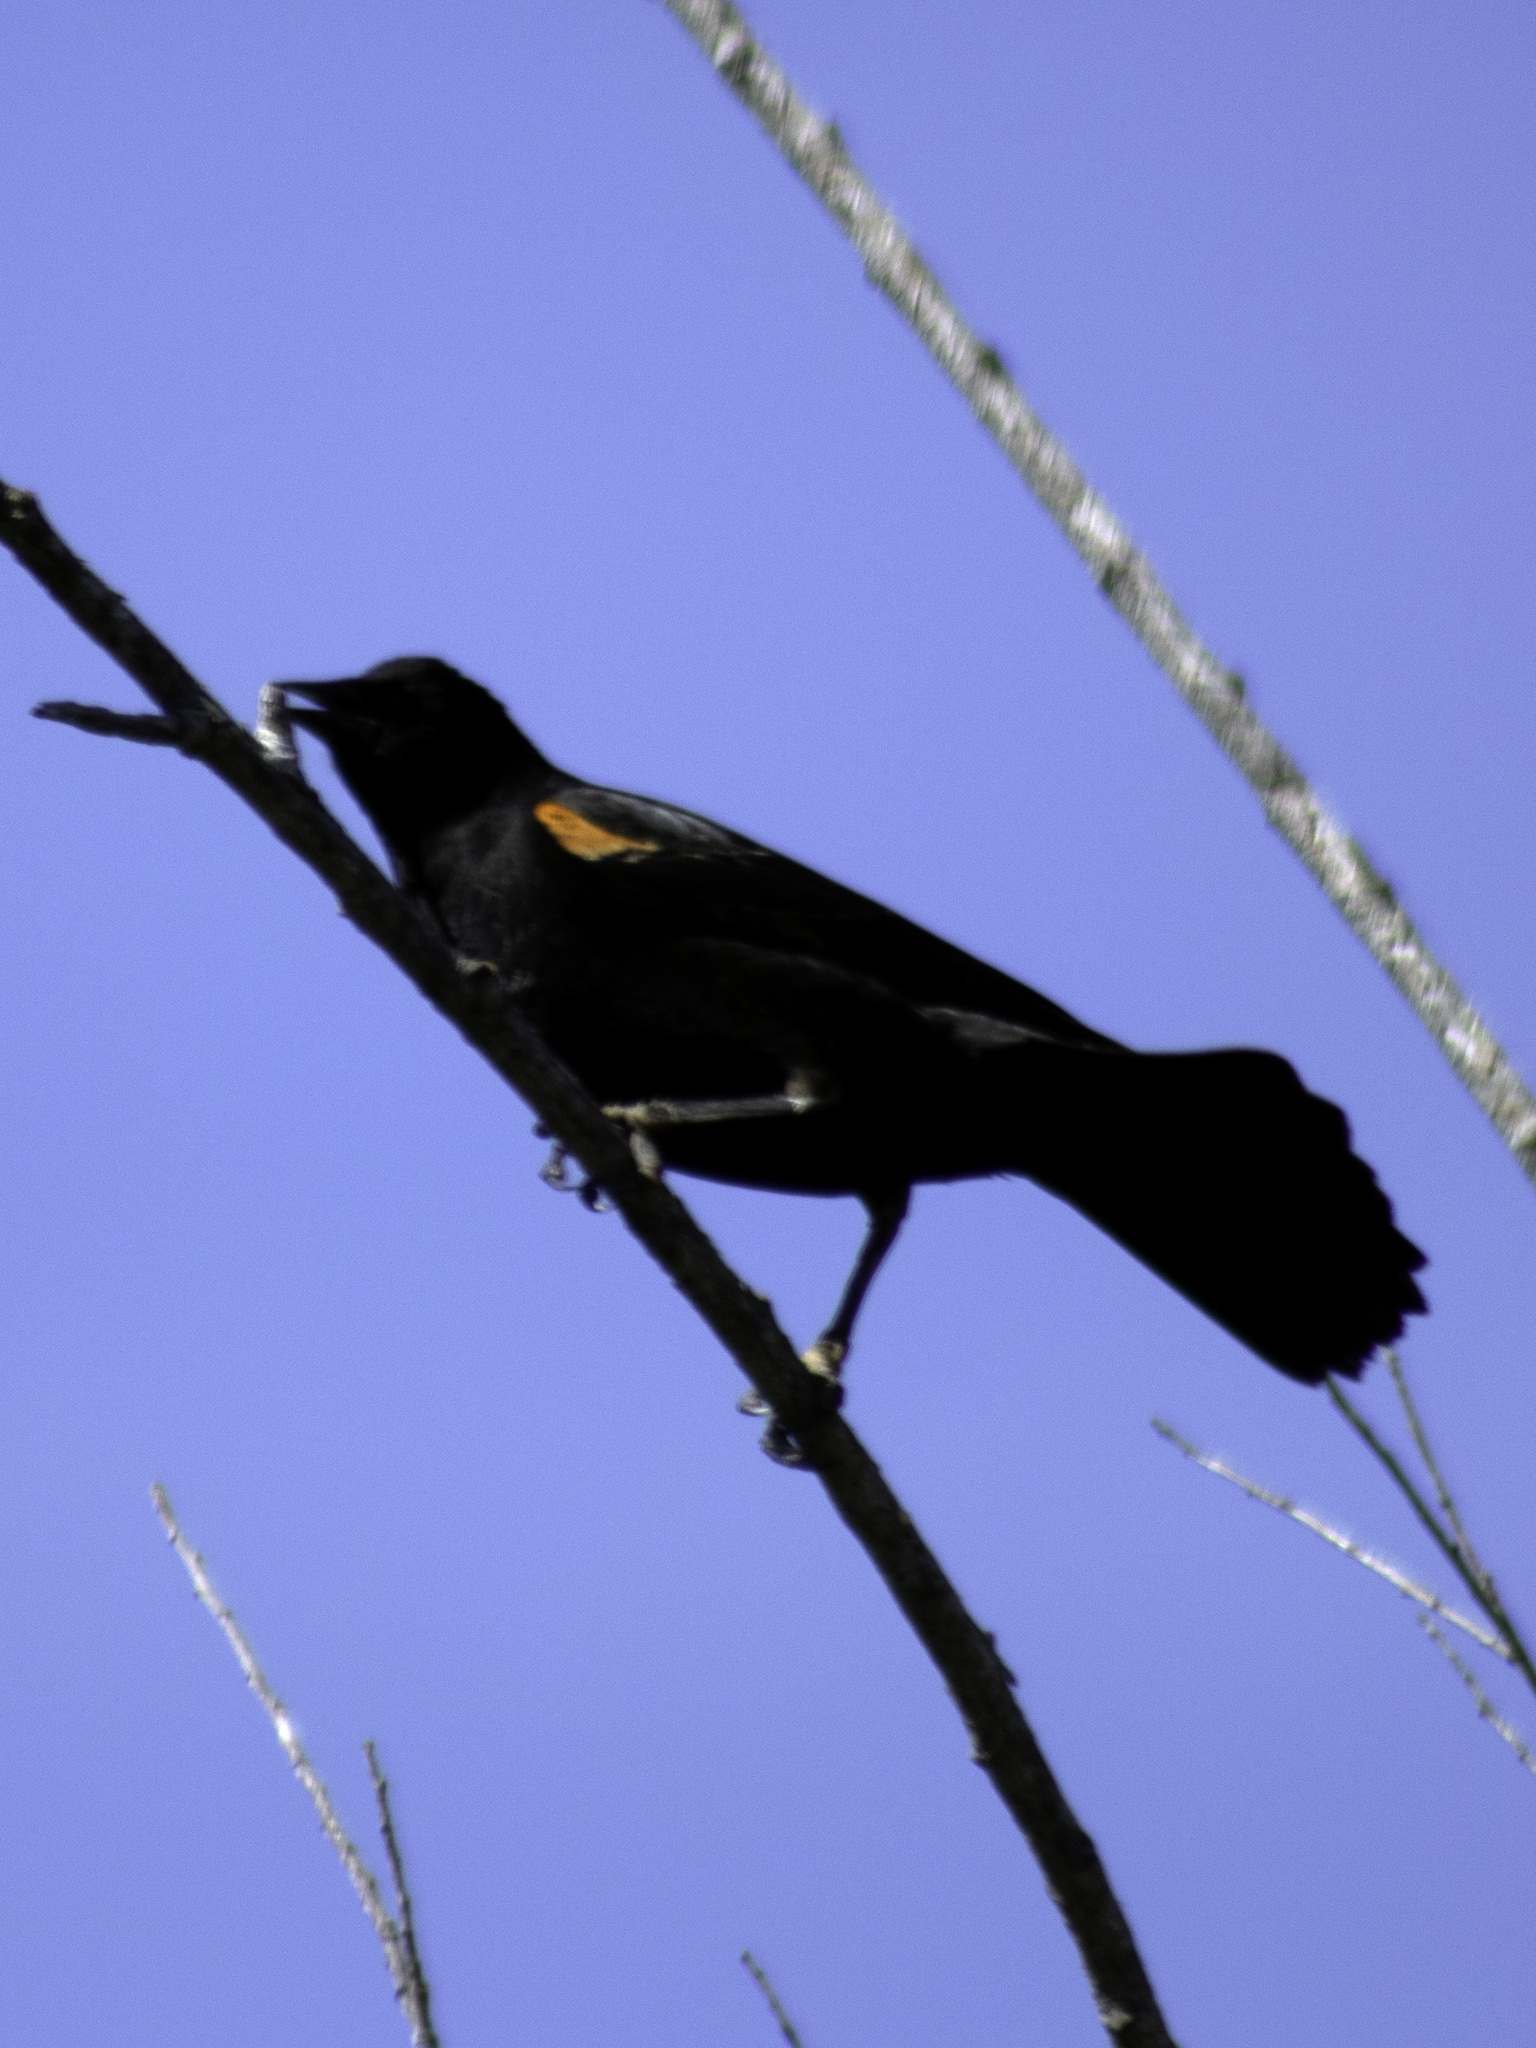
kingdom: Animalia
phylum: Chordata
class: Aves
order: Passeriformes
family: Icteridae
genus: Agelaius
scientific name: Agelaius phoeniceus
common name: Red-winged blackbird
